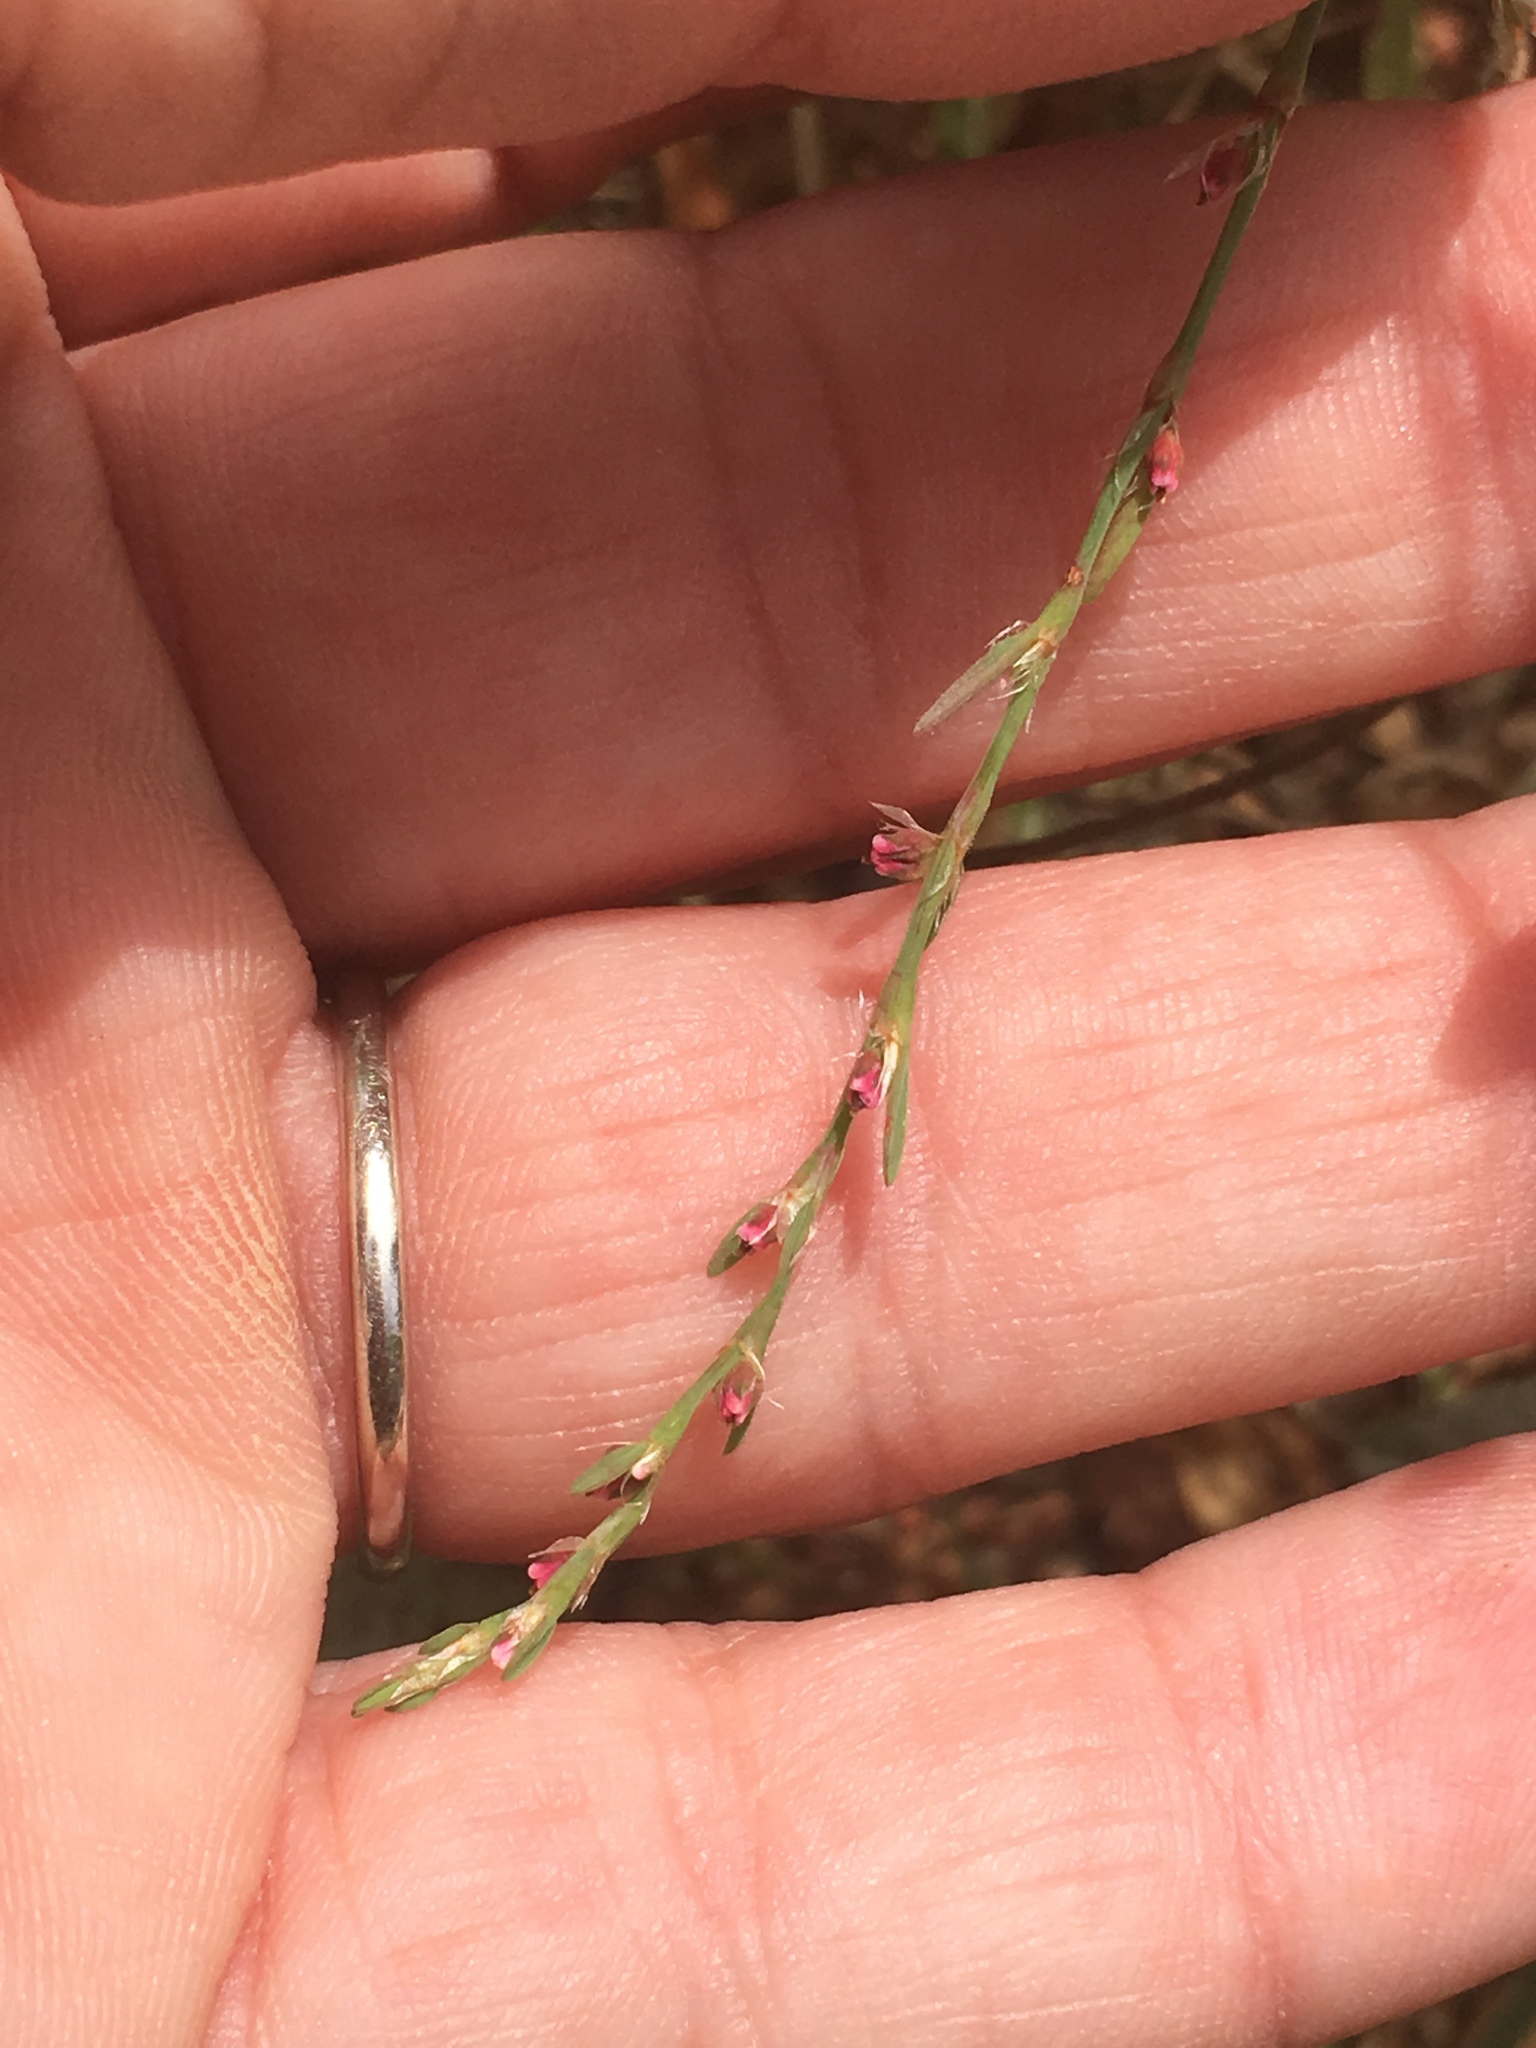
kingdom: Plantae
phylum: Tracheophyta
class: Magnoliopsida
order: Caryophyllales
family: Polygonaceae
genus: Polygonum
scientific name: Polygonum aviculare
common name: Prostrate knotweed
